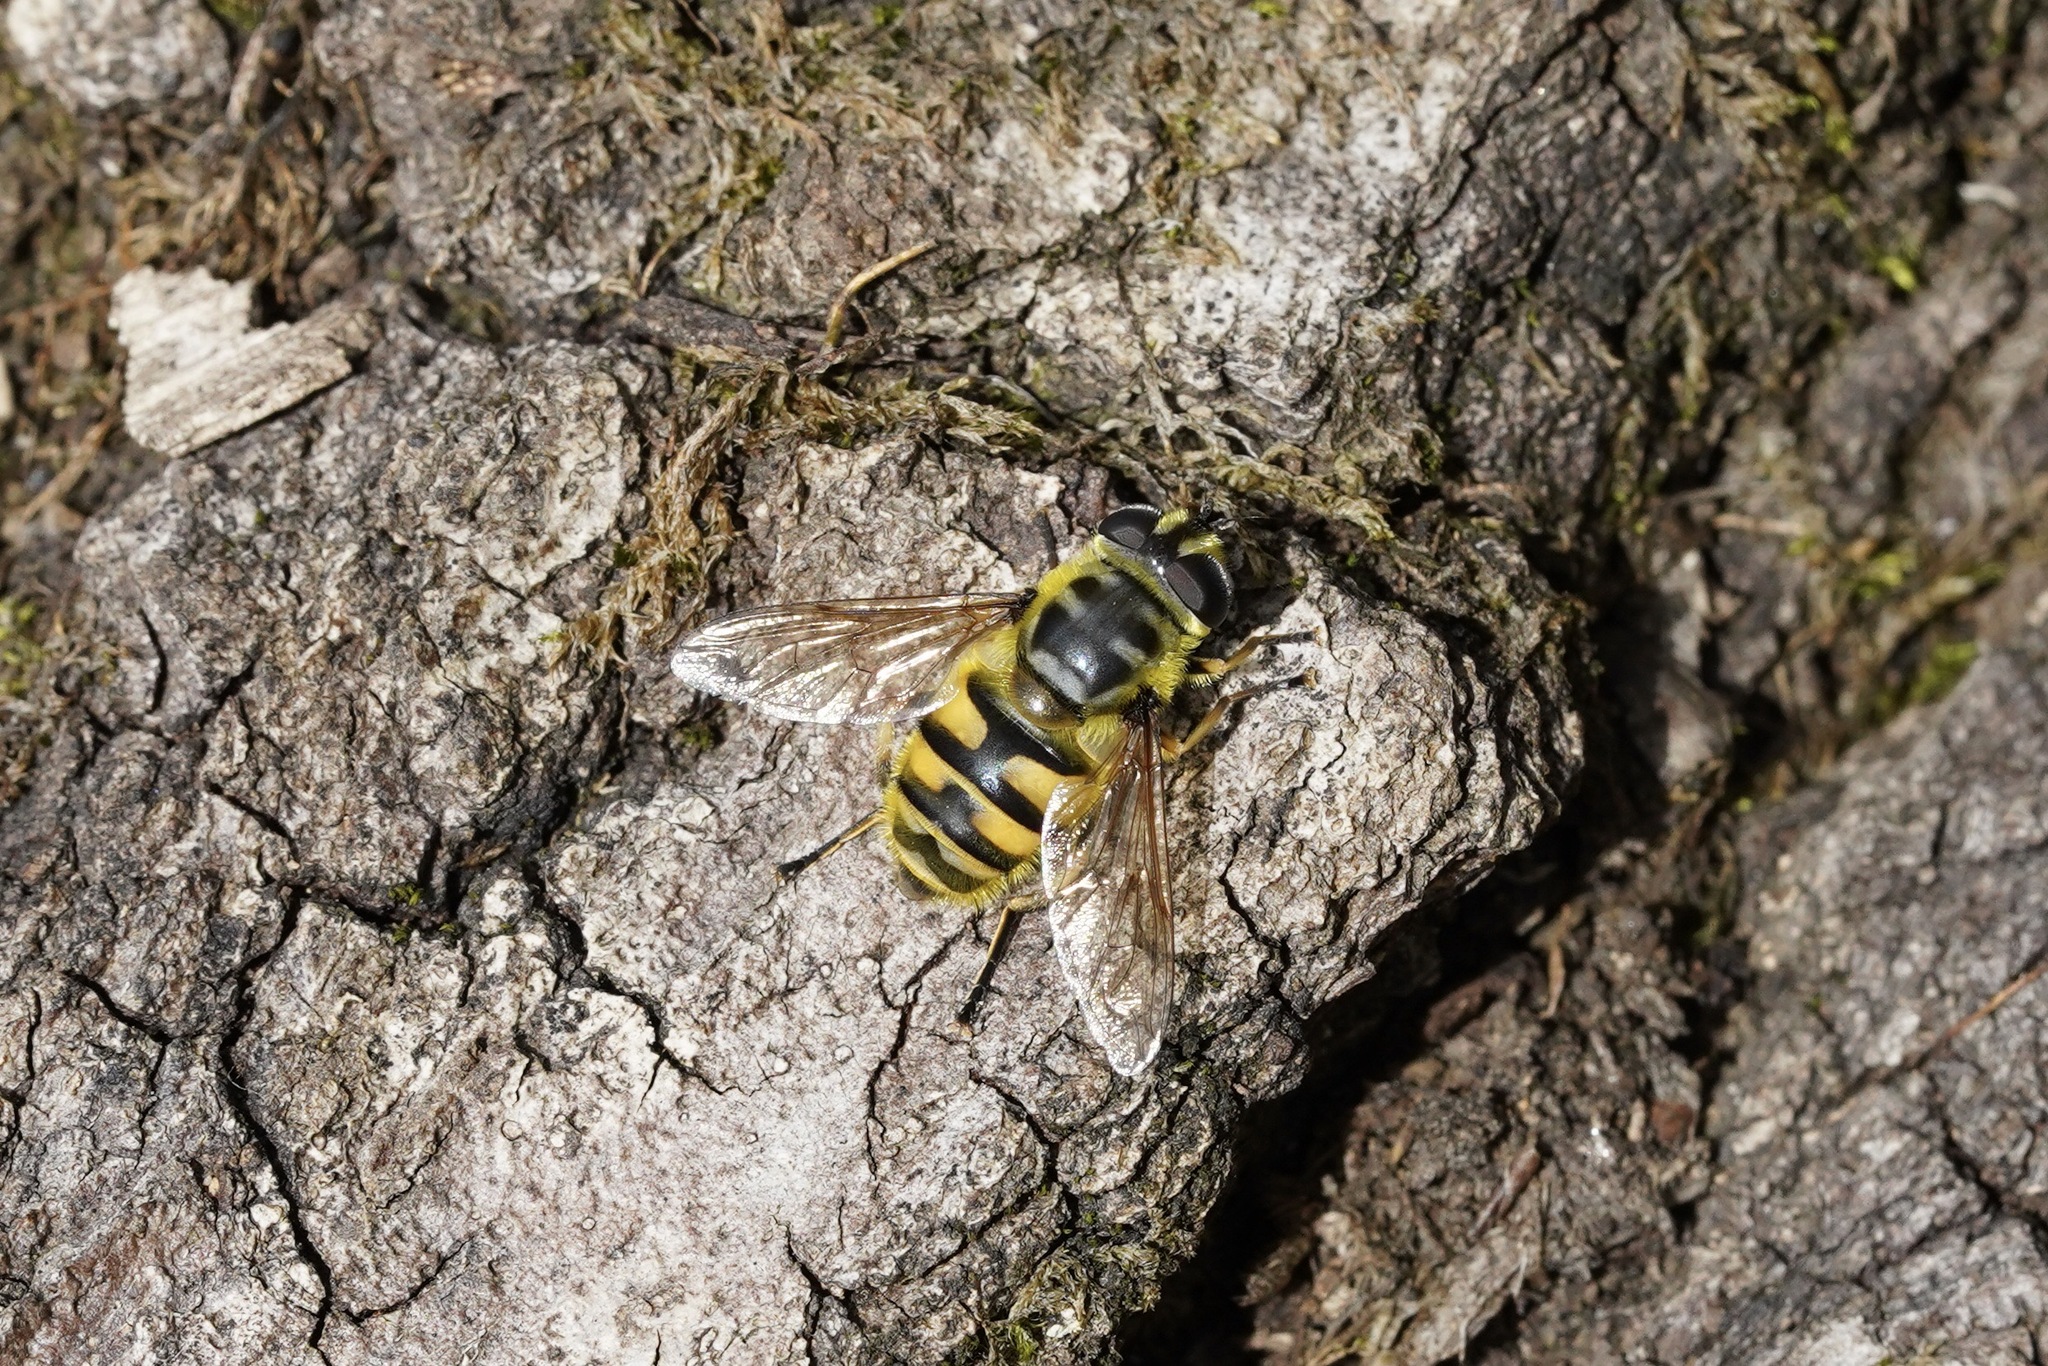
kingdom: Animalia
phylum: Arthropoda
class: Insecta
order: Diptera
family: Syrphidae
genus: Myathropa
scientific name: Myathropa florea
